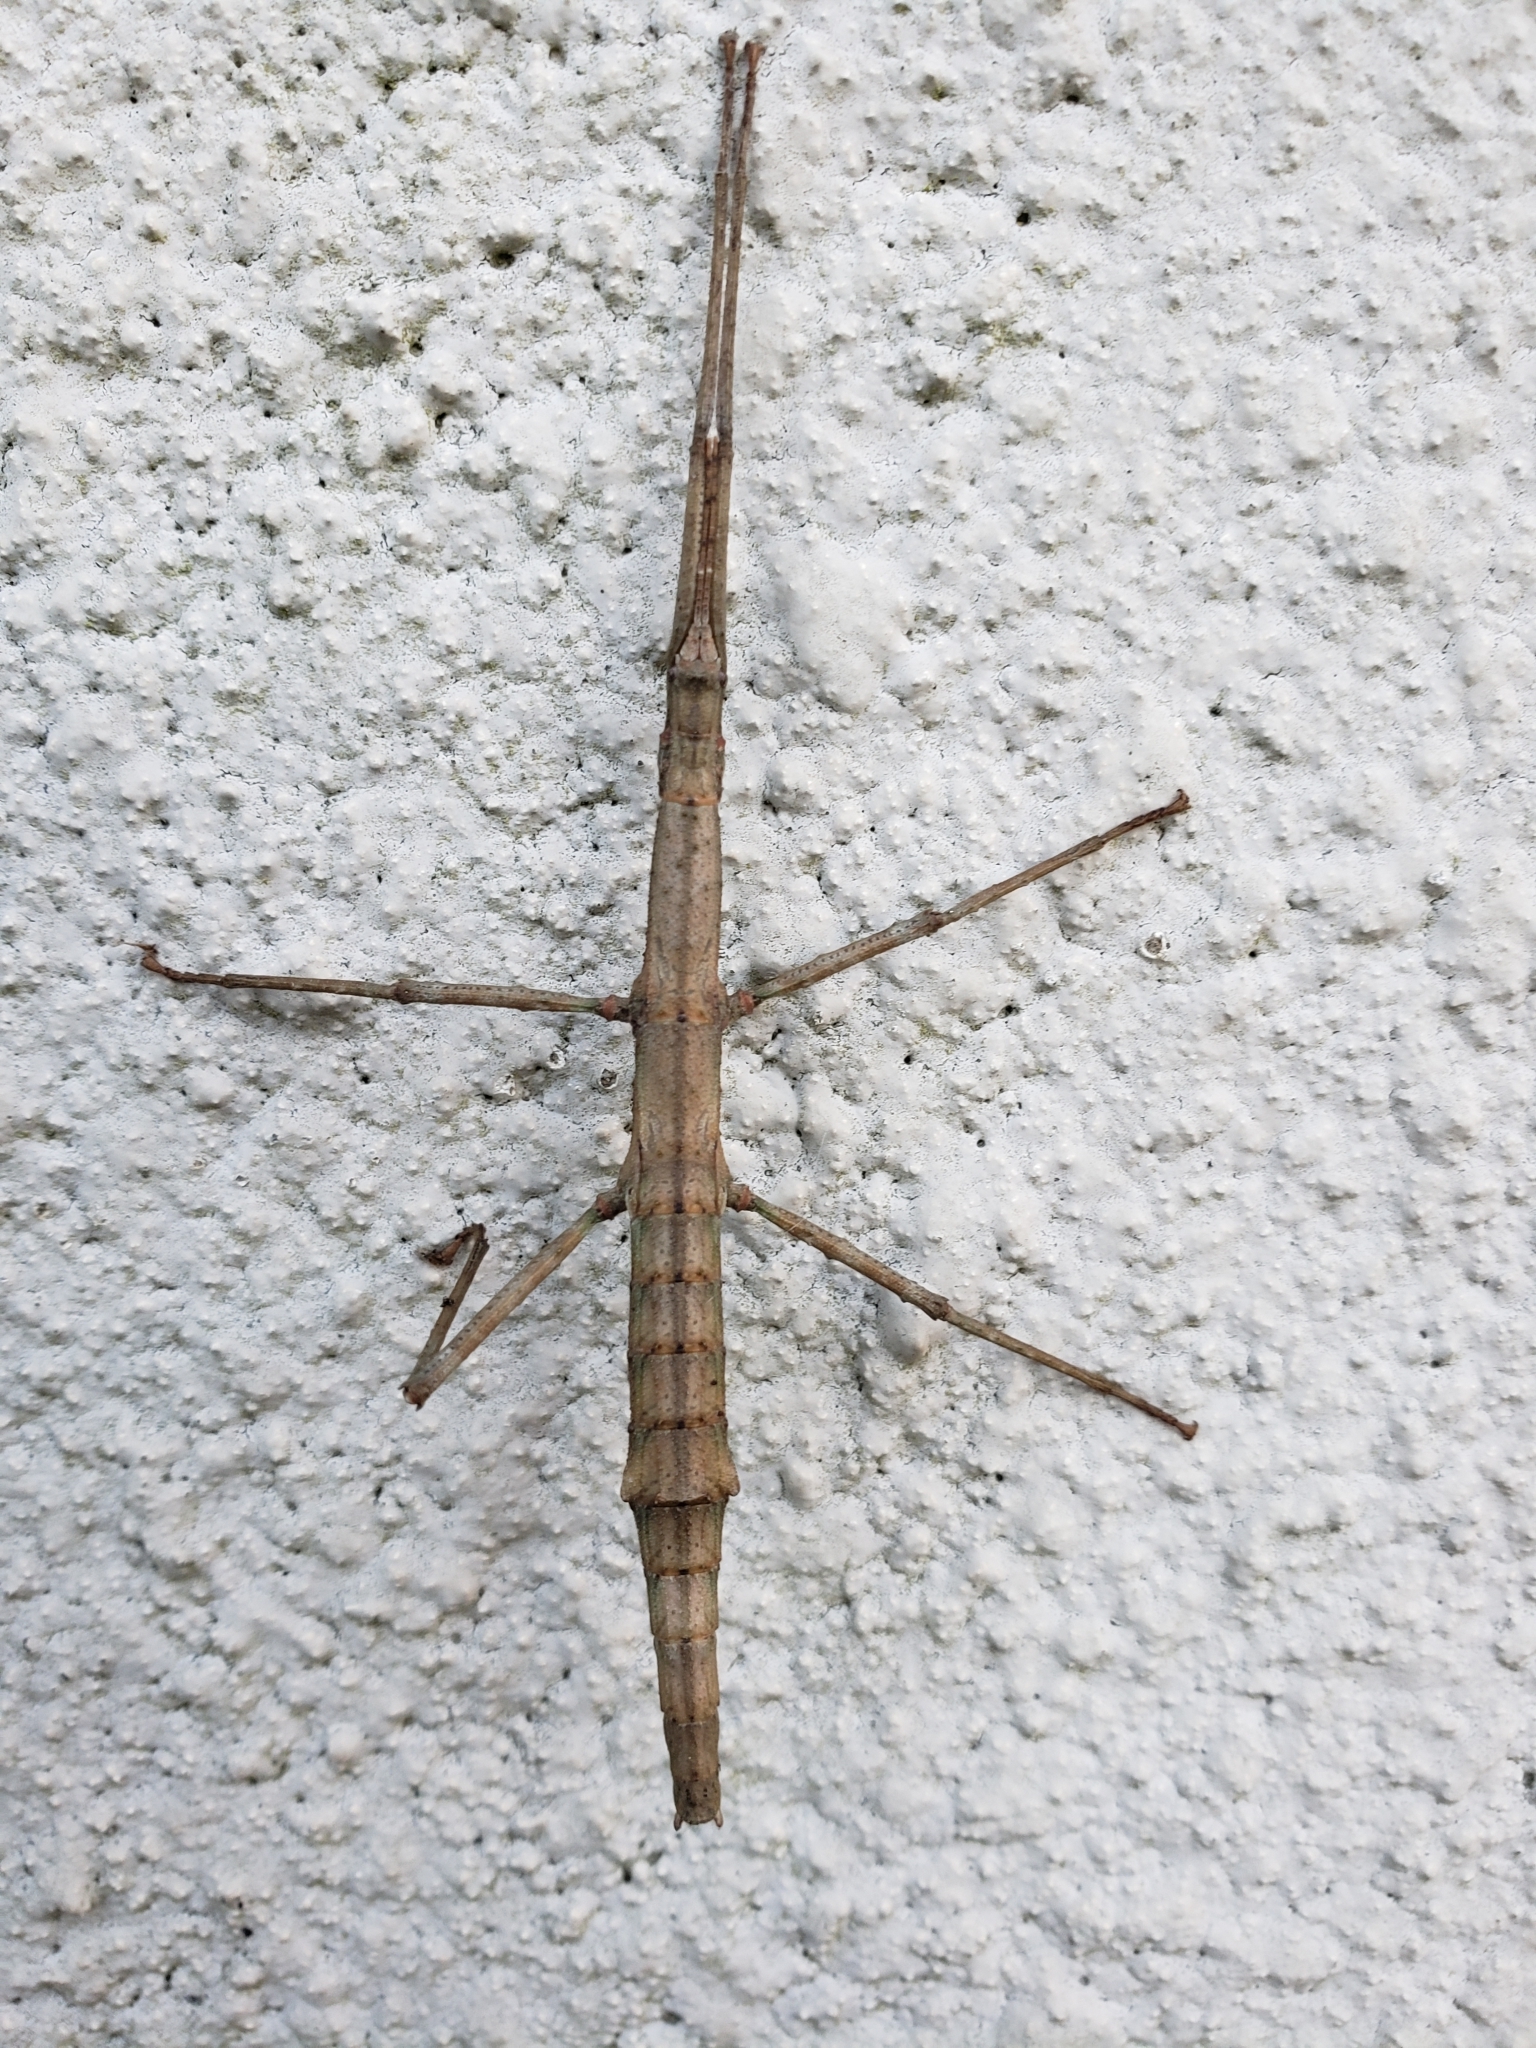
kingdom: Animalia
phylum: Arthropoda
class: Insecta
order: Phasmida
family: Phasmatidae
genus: Niveaphasma
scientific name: Niveaphasma annulatum
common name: Hutton's stick insect
